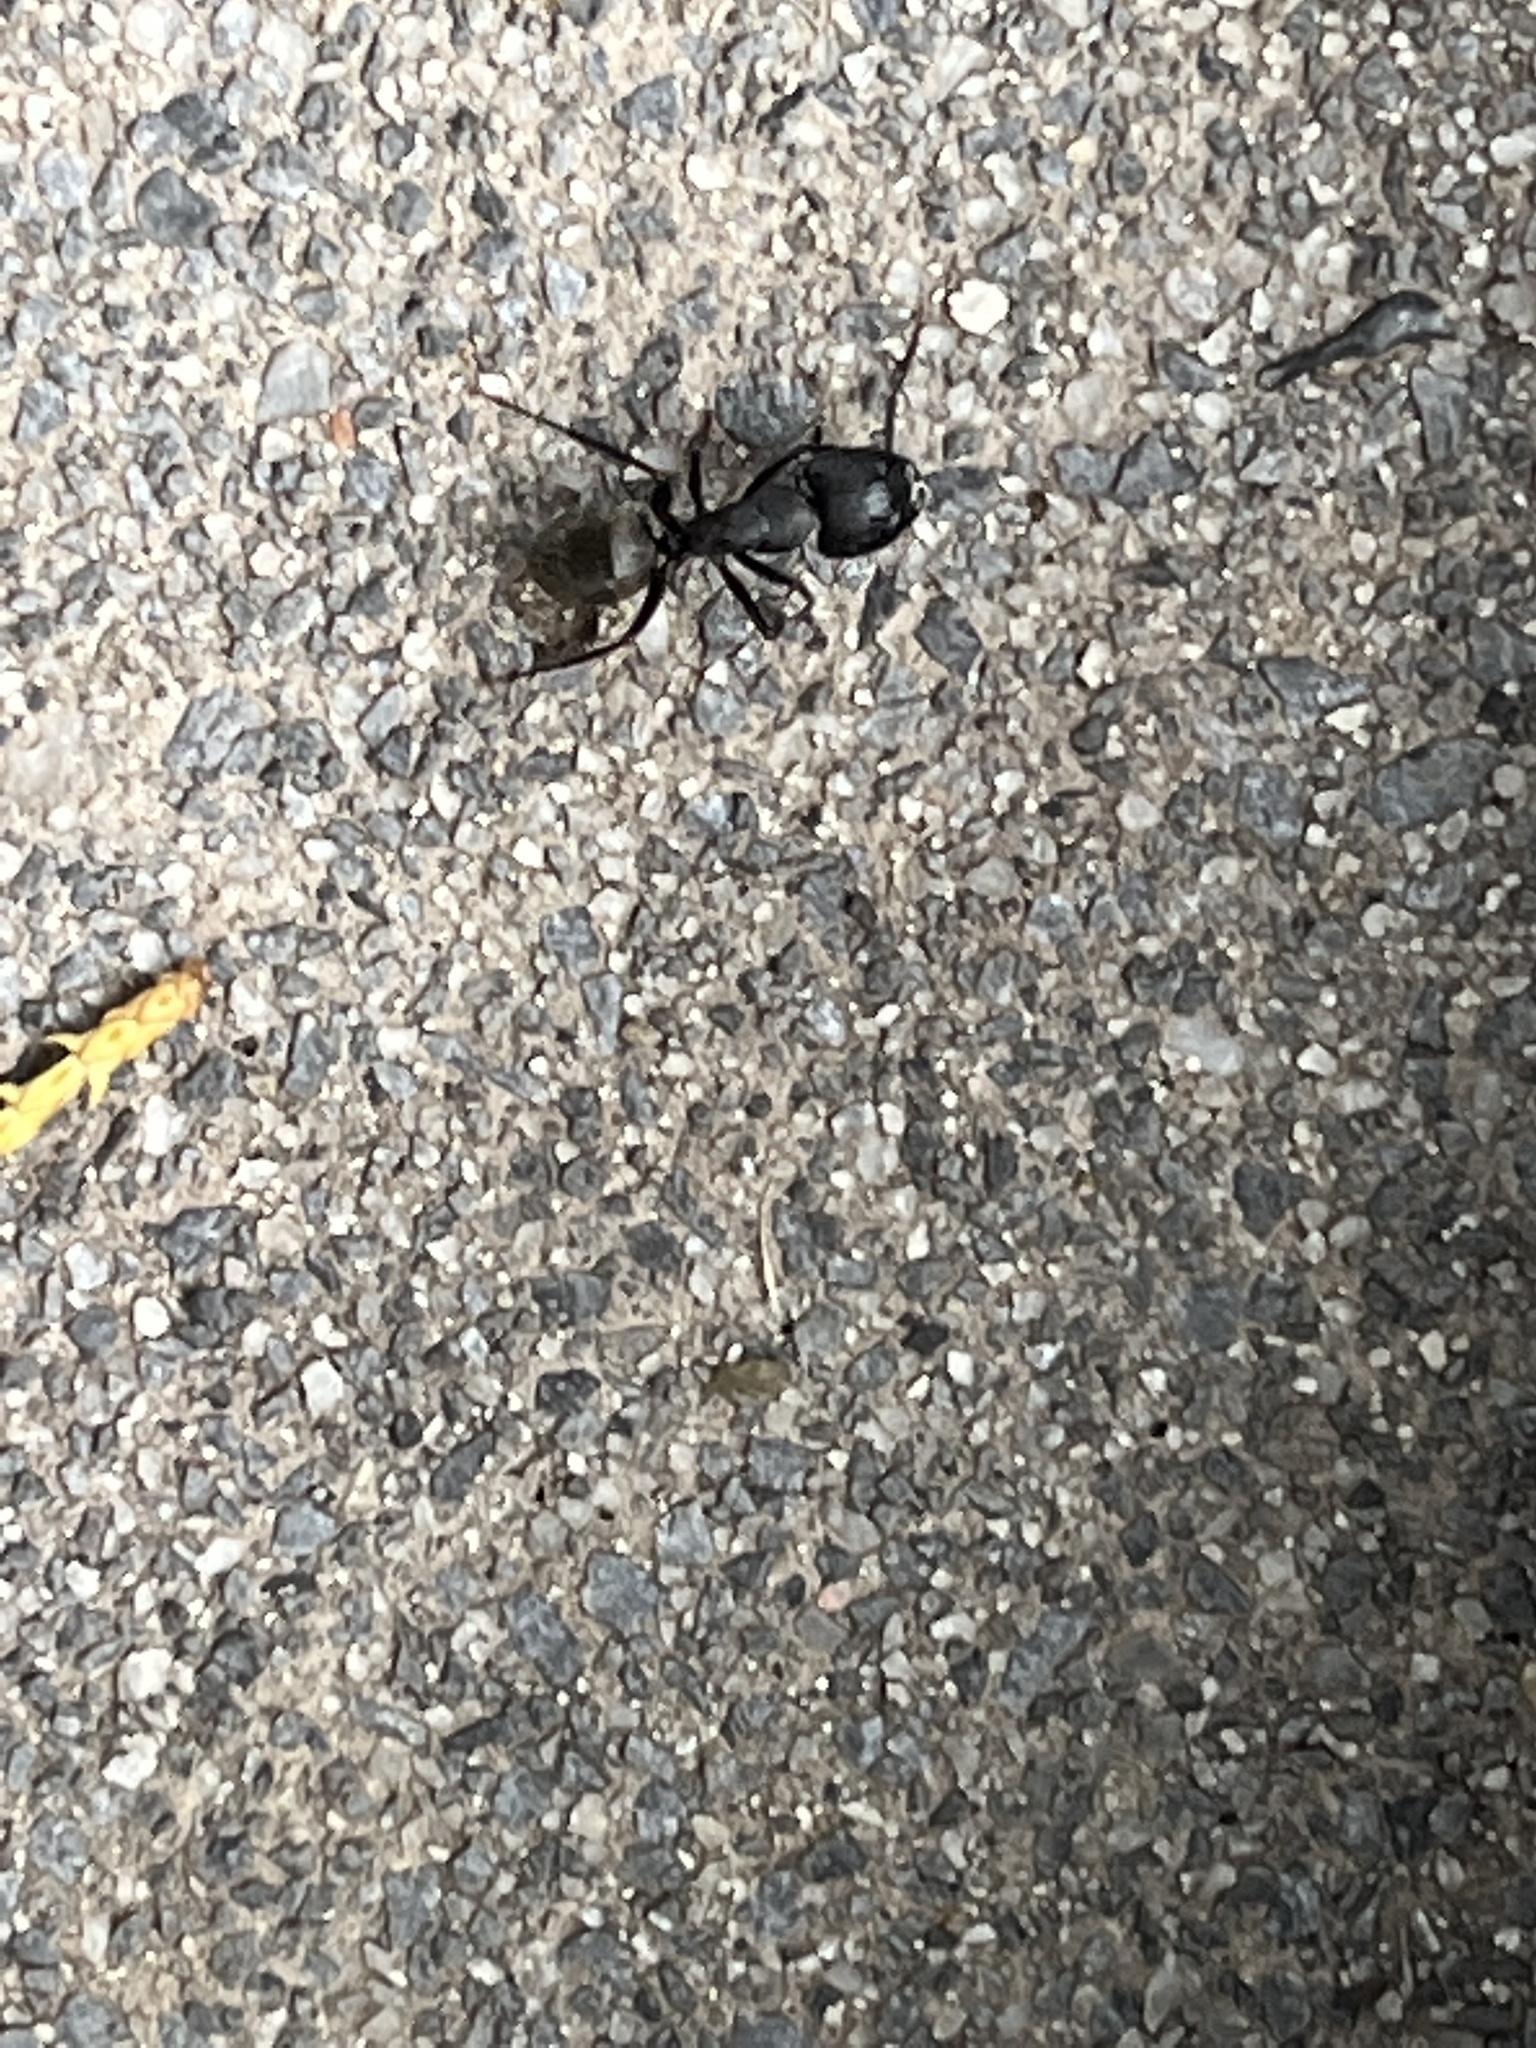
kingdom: Animalia
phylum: Arthropoda
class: Insecta
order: Hymenoptera
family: Formicidae
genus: Camponotus
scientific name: Camponotus pennsylvanicus
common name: Black carpenter ant
